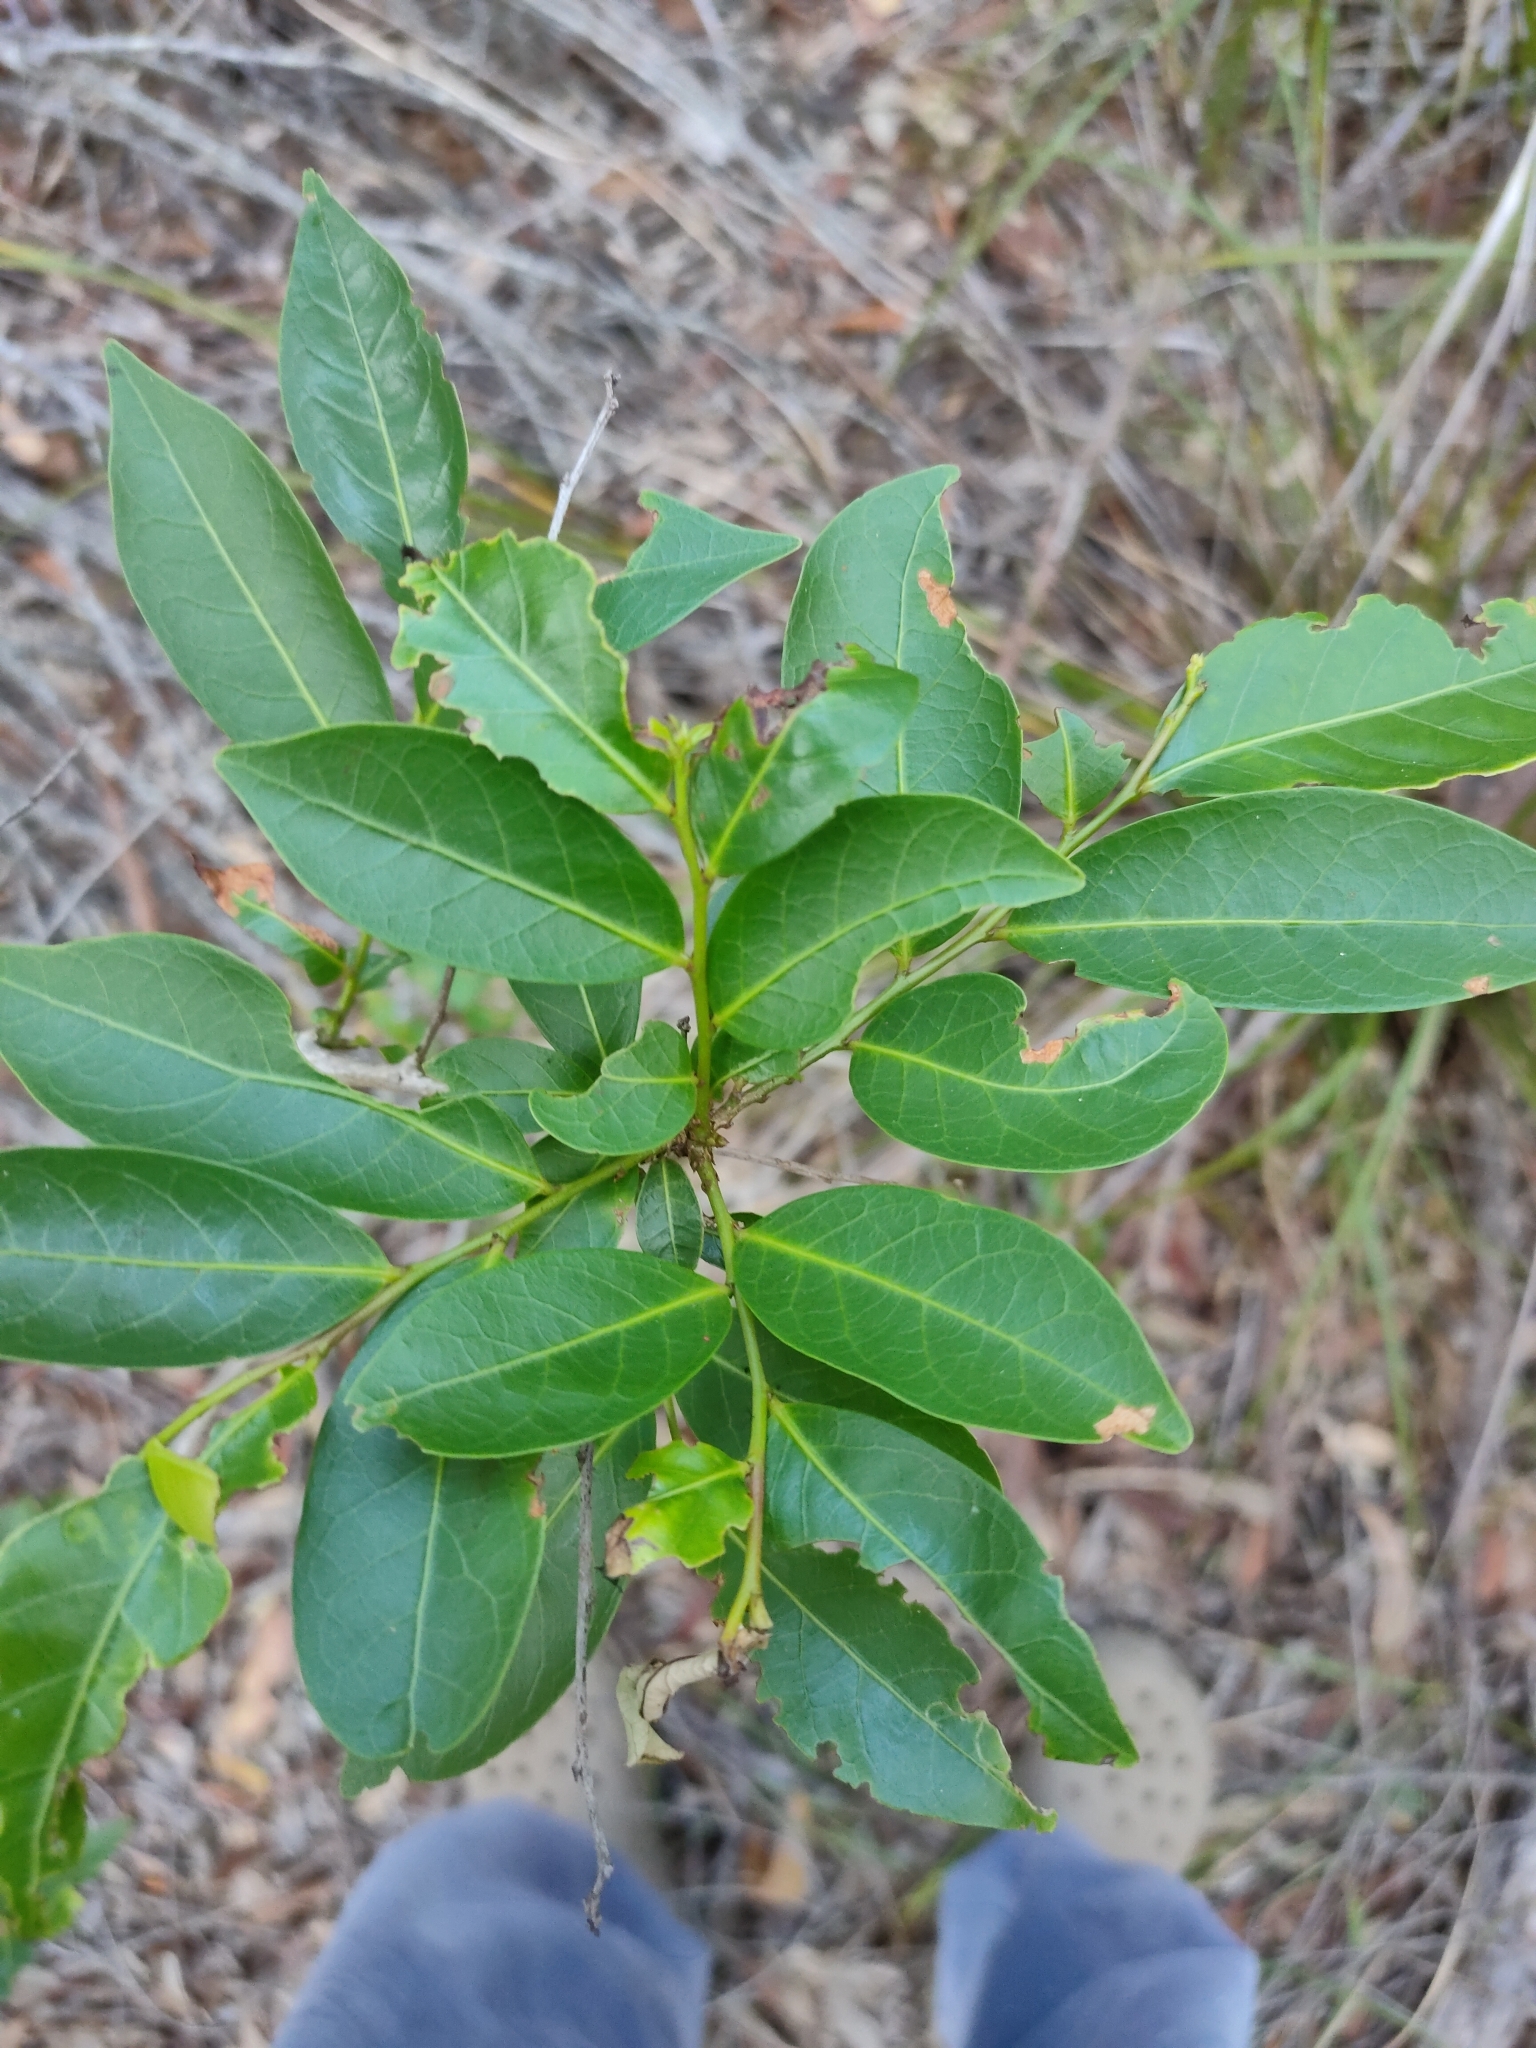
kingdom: Plantae
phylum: Tracheophyta
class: Magnoliopsida
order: Malpighiales
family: Phyllanthaceae
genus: Glochidion
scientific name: Glochidion ferdinandi
